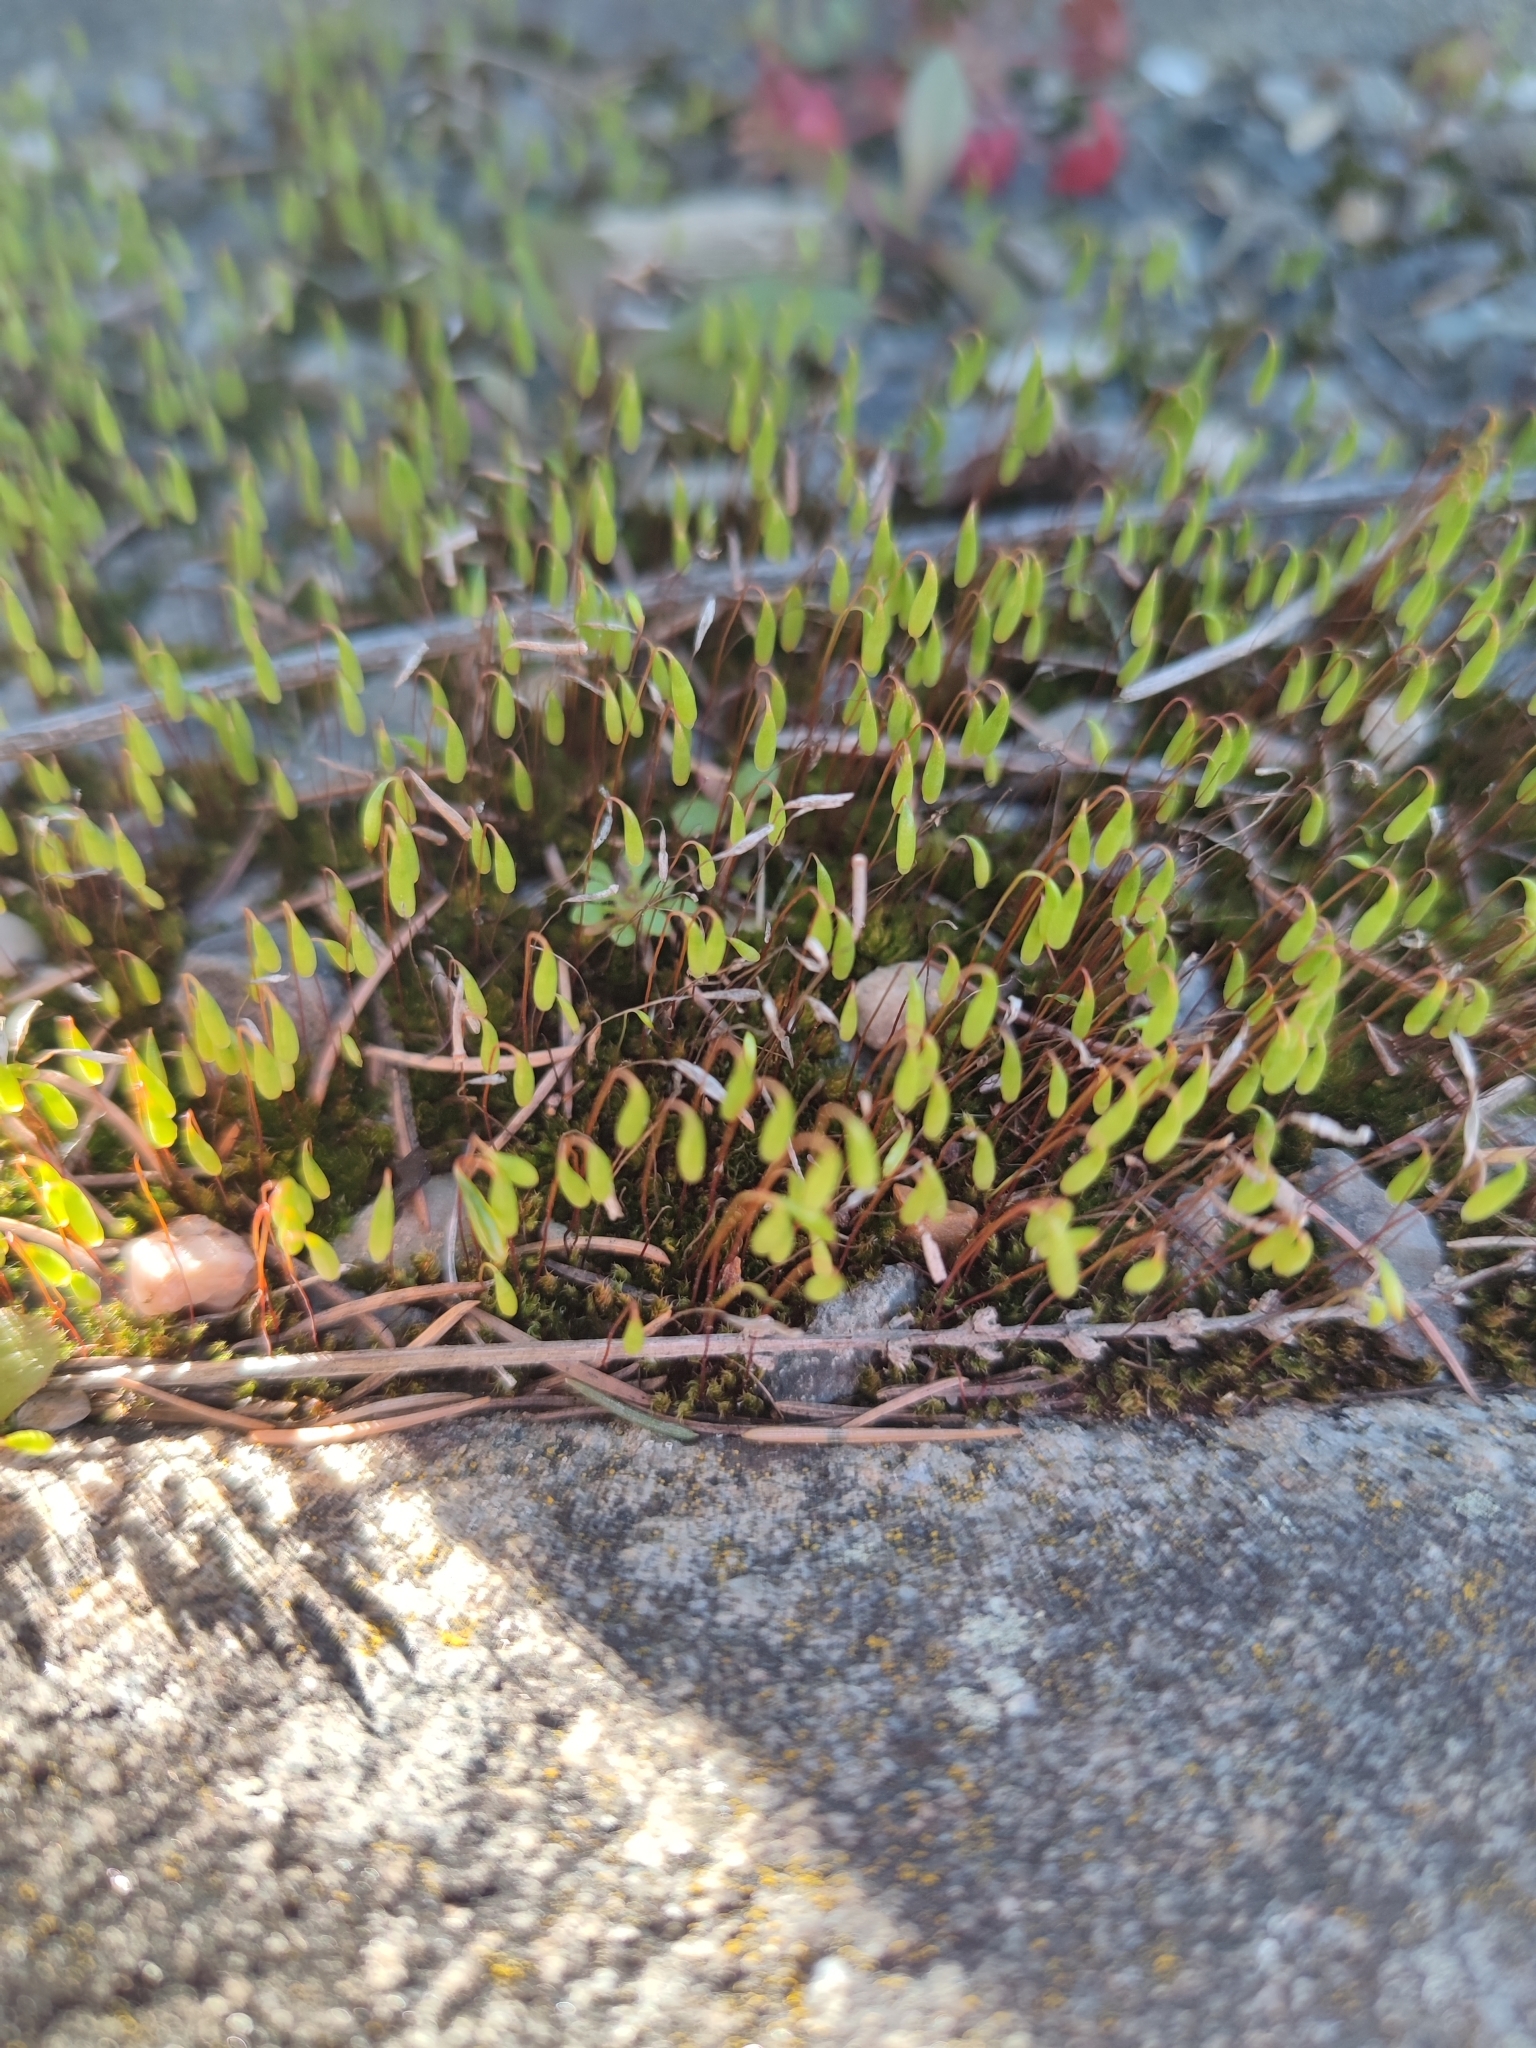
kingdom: Plantae
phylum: Bryophyta
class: Bryopsida
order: Bryales
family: Bryaceae
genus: Rosulabryum
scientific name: Rosulabryum capillare
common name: Capillary thread-moss
